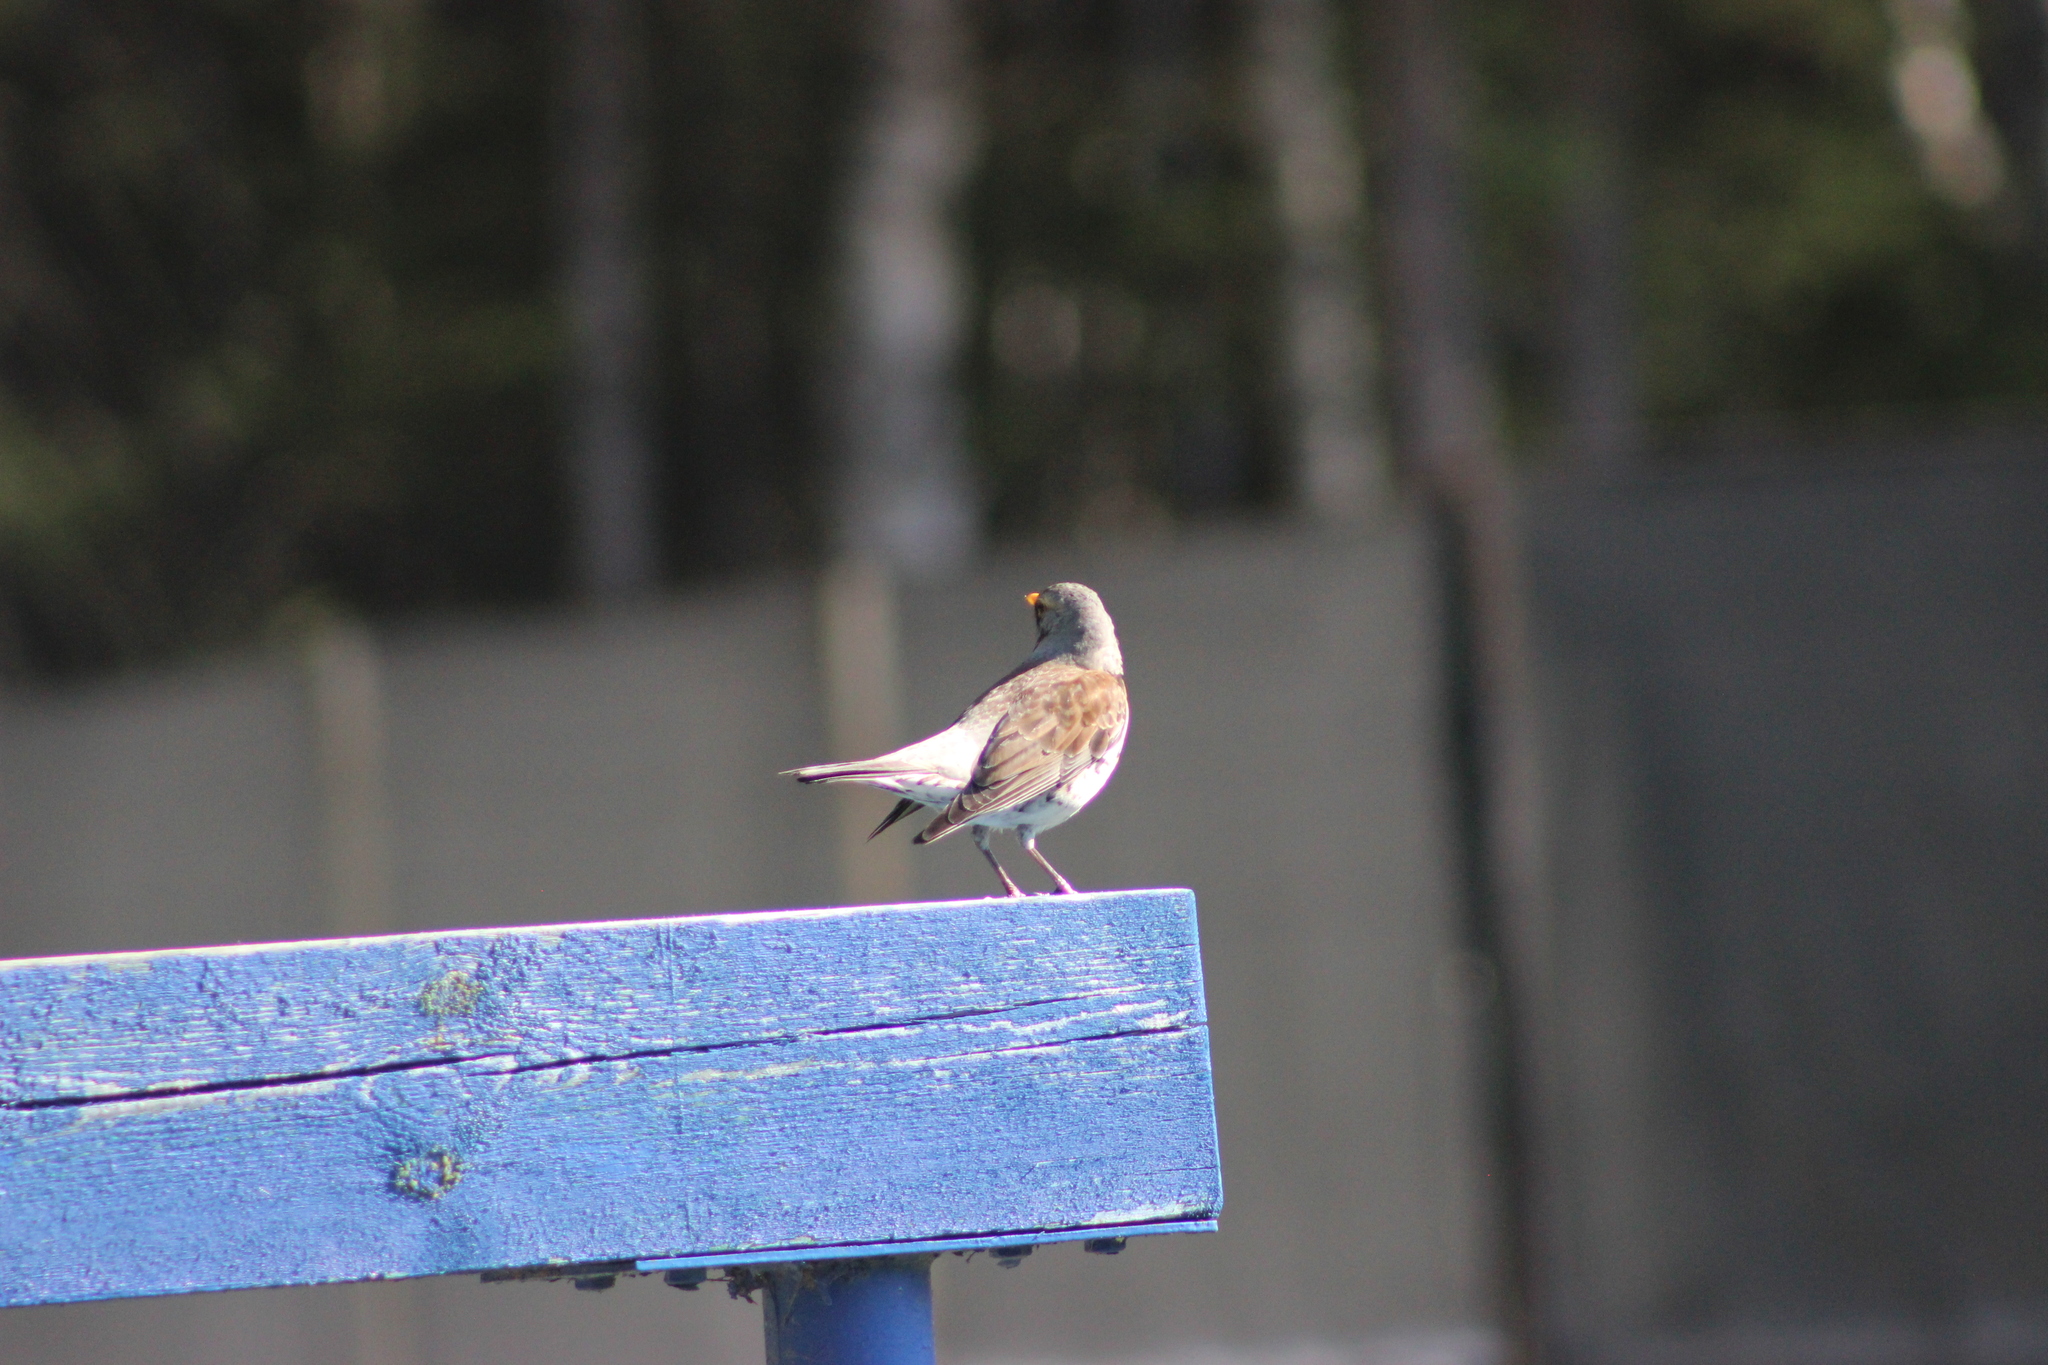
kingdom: Animalia
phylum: Chordata
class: Aves
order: Passeriformes
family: Turdidae
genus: Turdus
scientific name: Turdus pilaris
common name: Fieldfare
